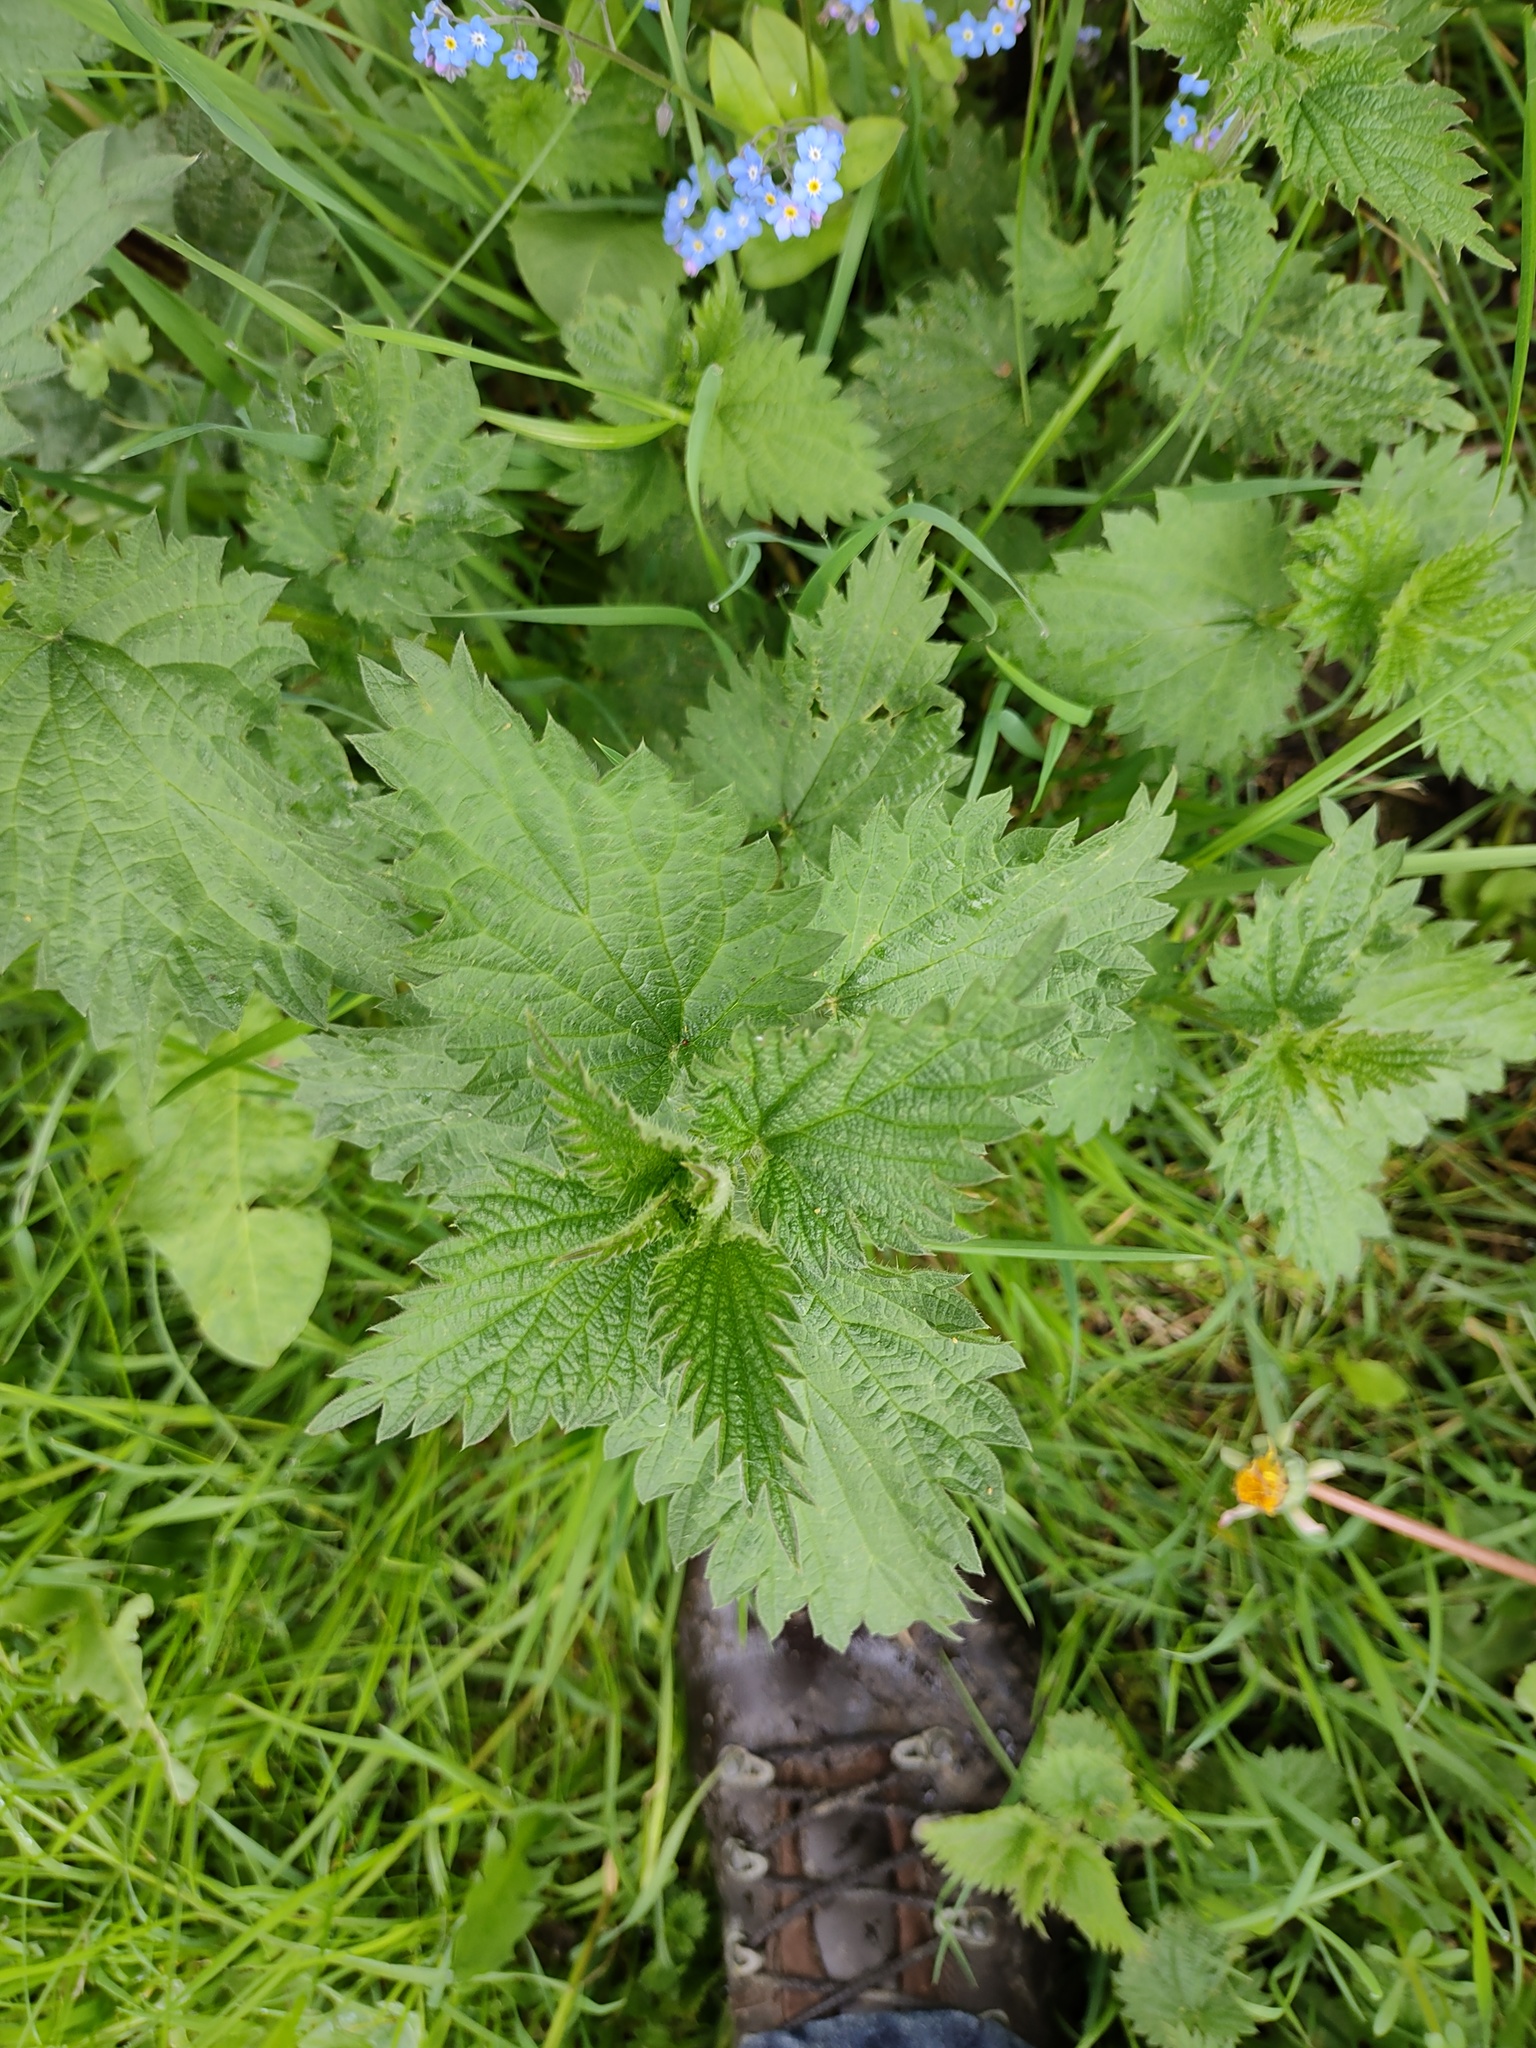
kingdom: Plantae
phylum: Tracheophyta
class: Magnoliopsida
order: Rosales
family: Urticaceae
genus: Urtica
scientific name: Urtica dioica
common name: Common nettle
